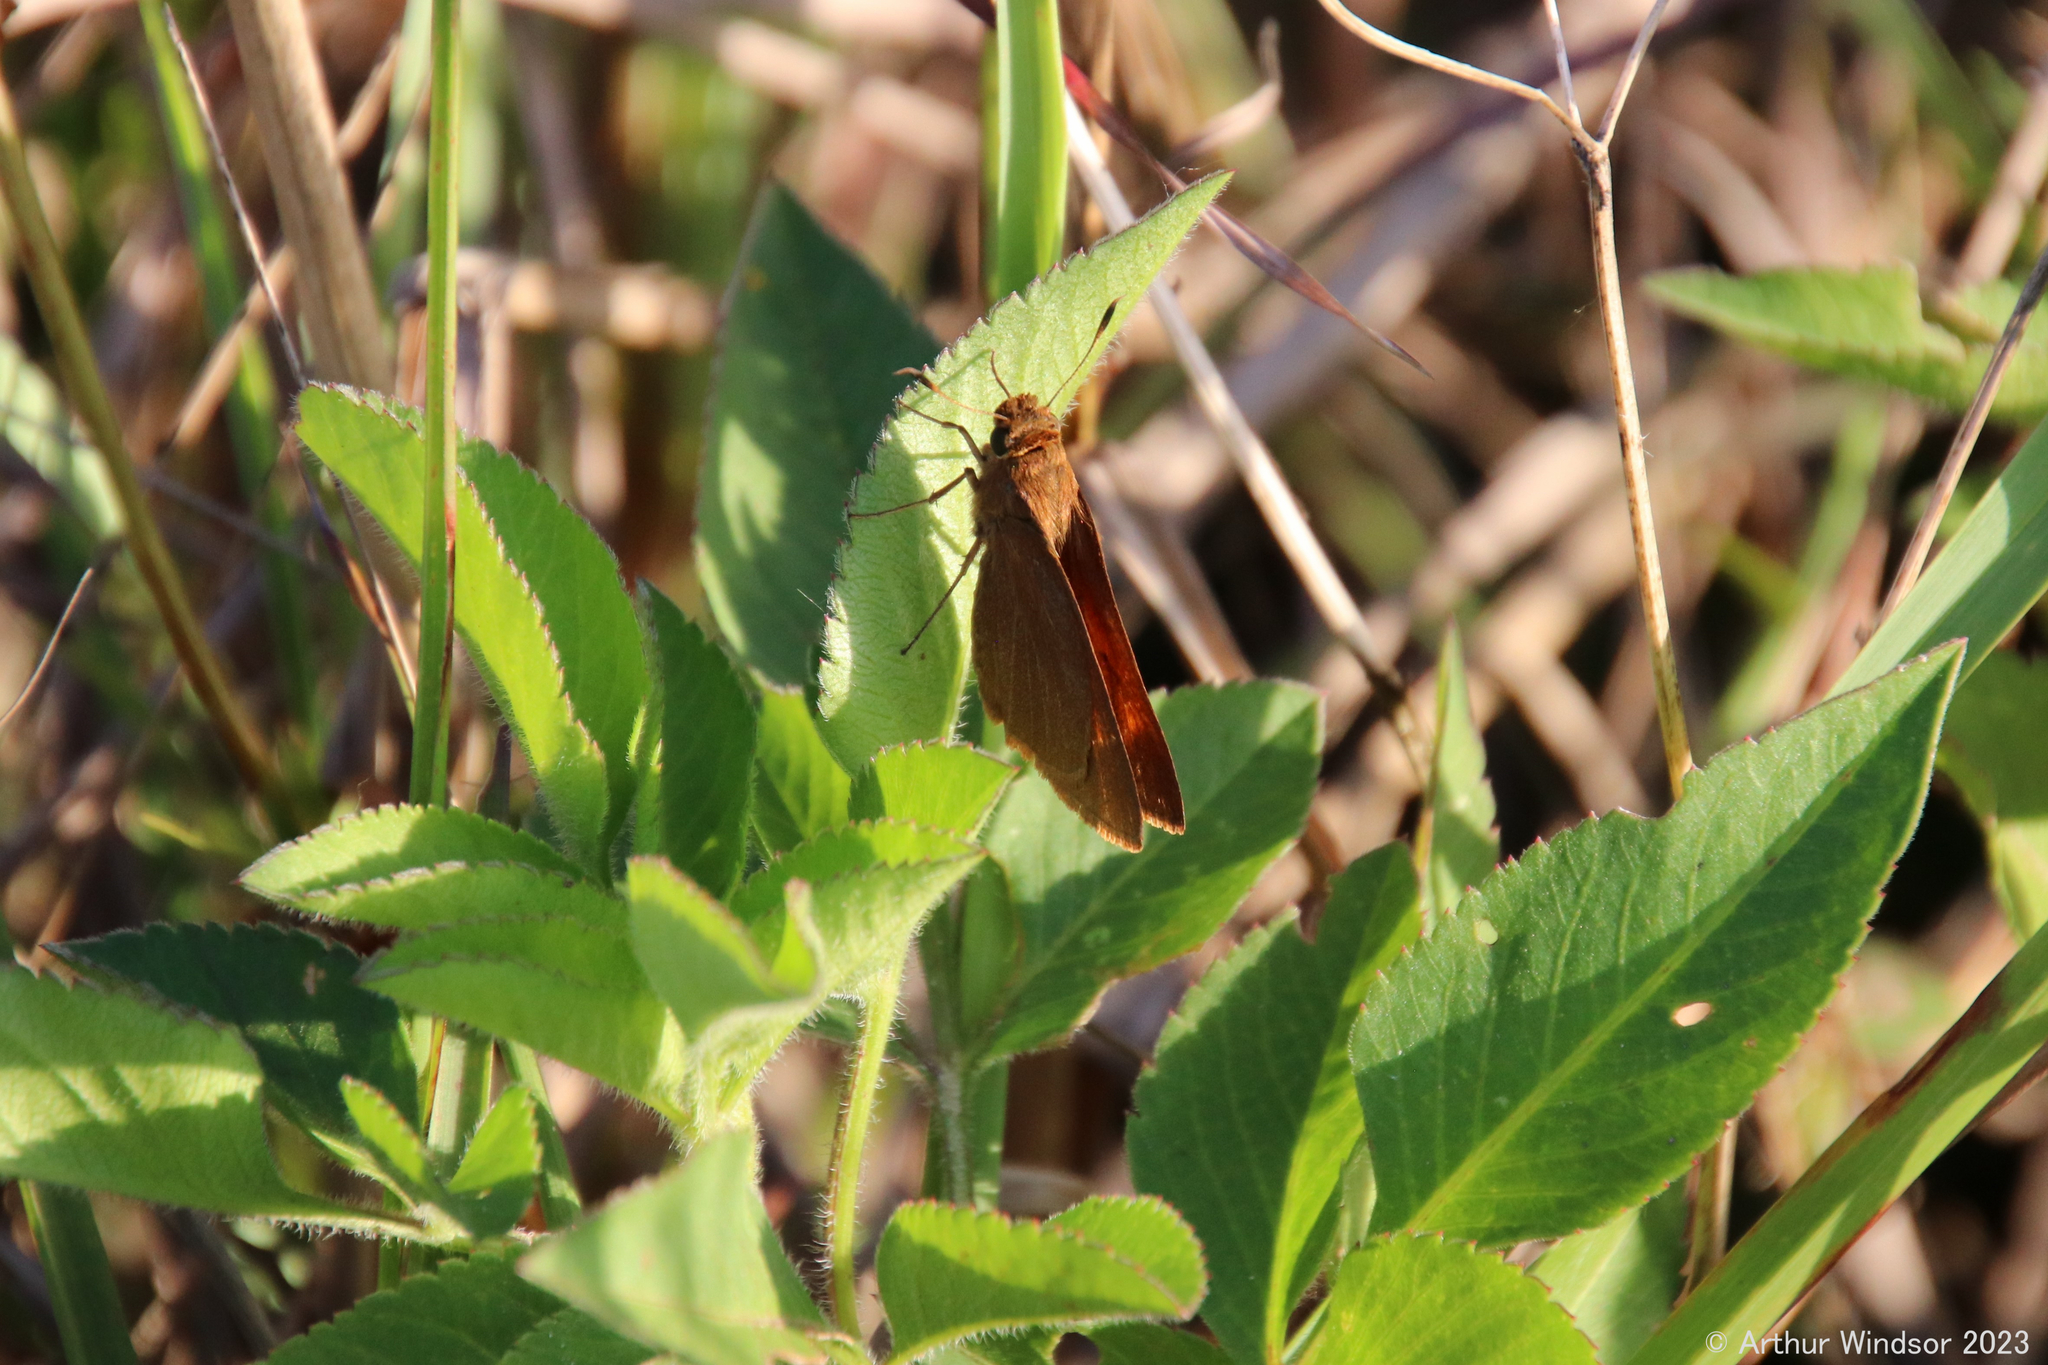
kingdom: Animalia
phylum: Arthropoda
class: Insecta
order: Lepidoptera
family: Hesperiidae
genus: Euphyes
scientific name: Euphyes pilatka
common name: Palatka skipper
